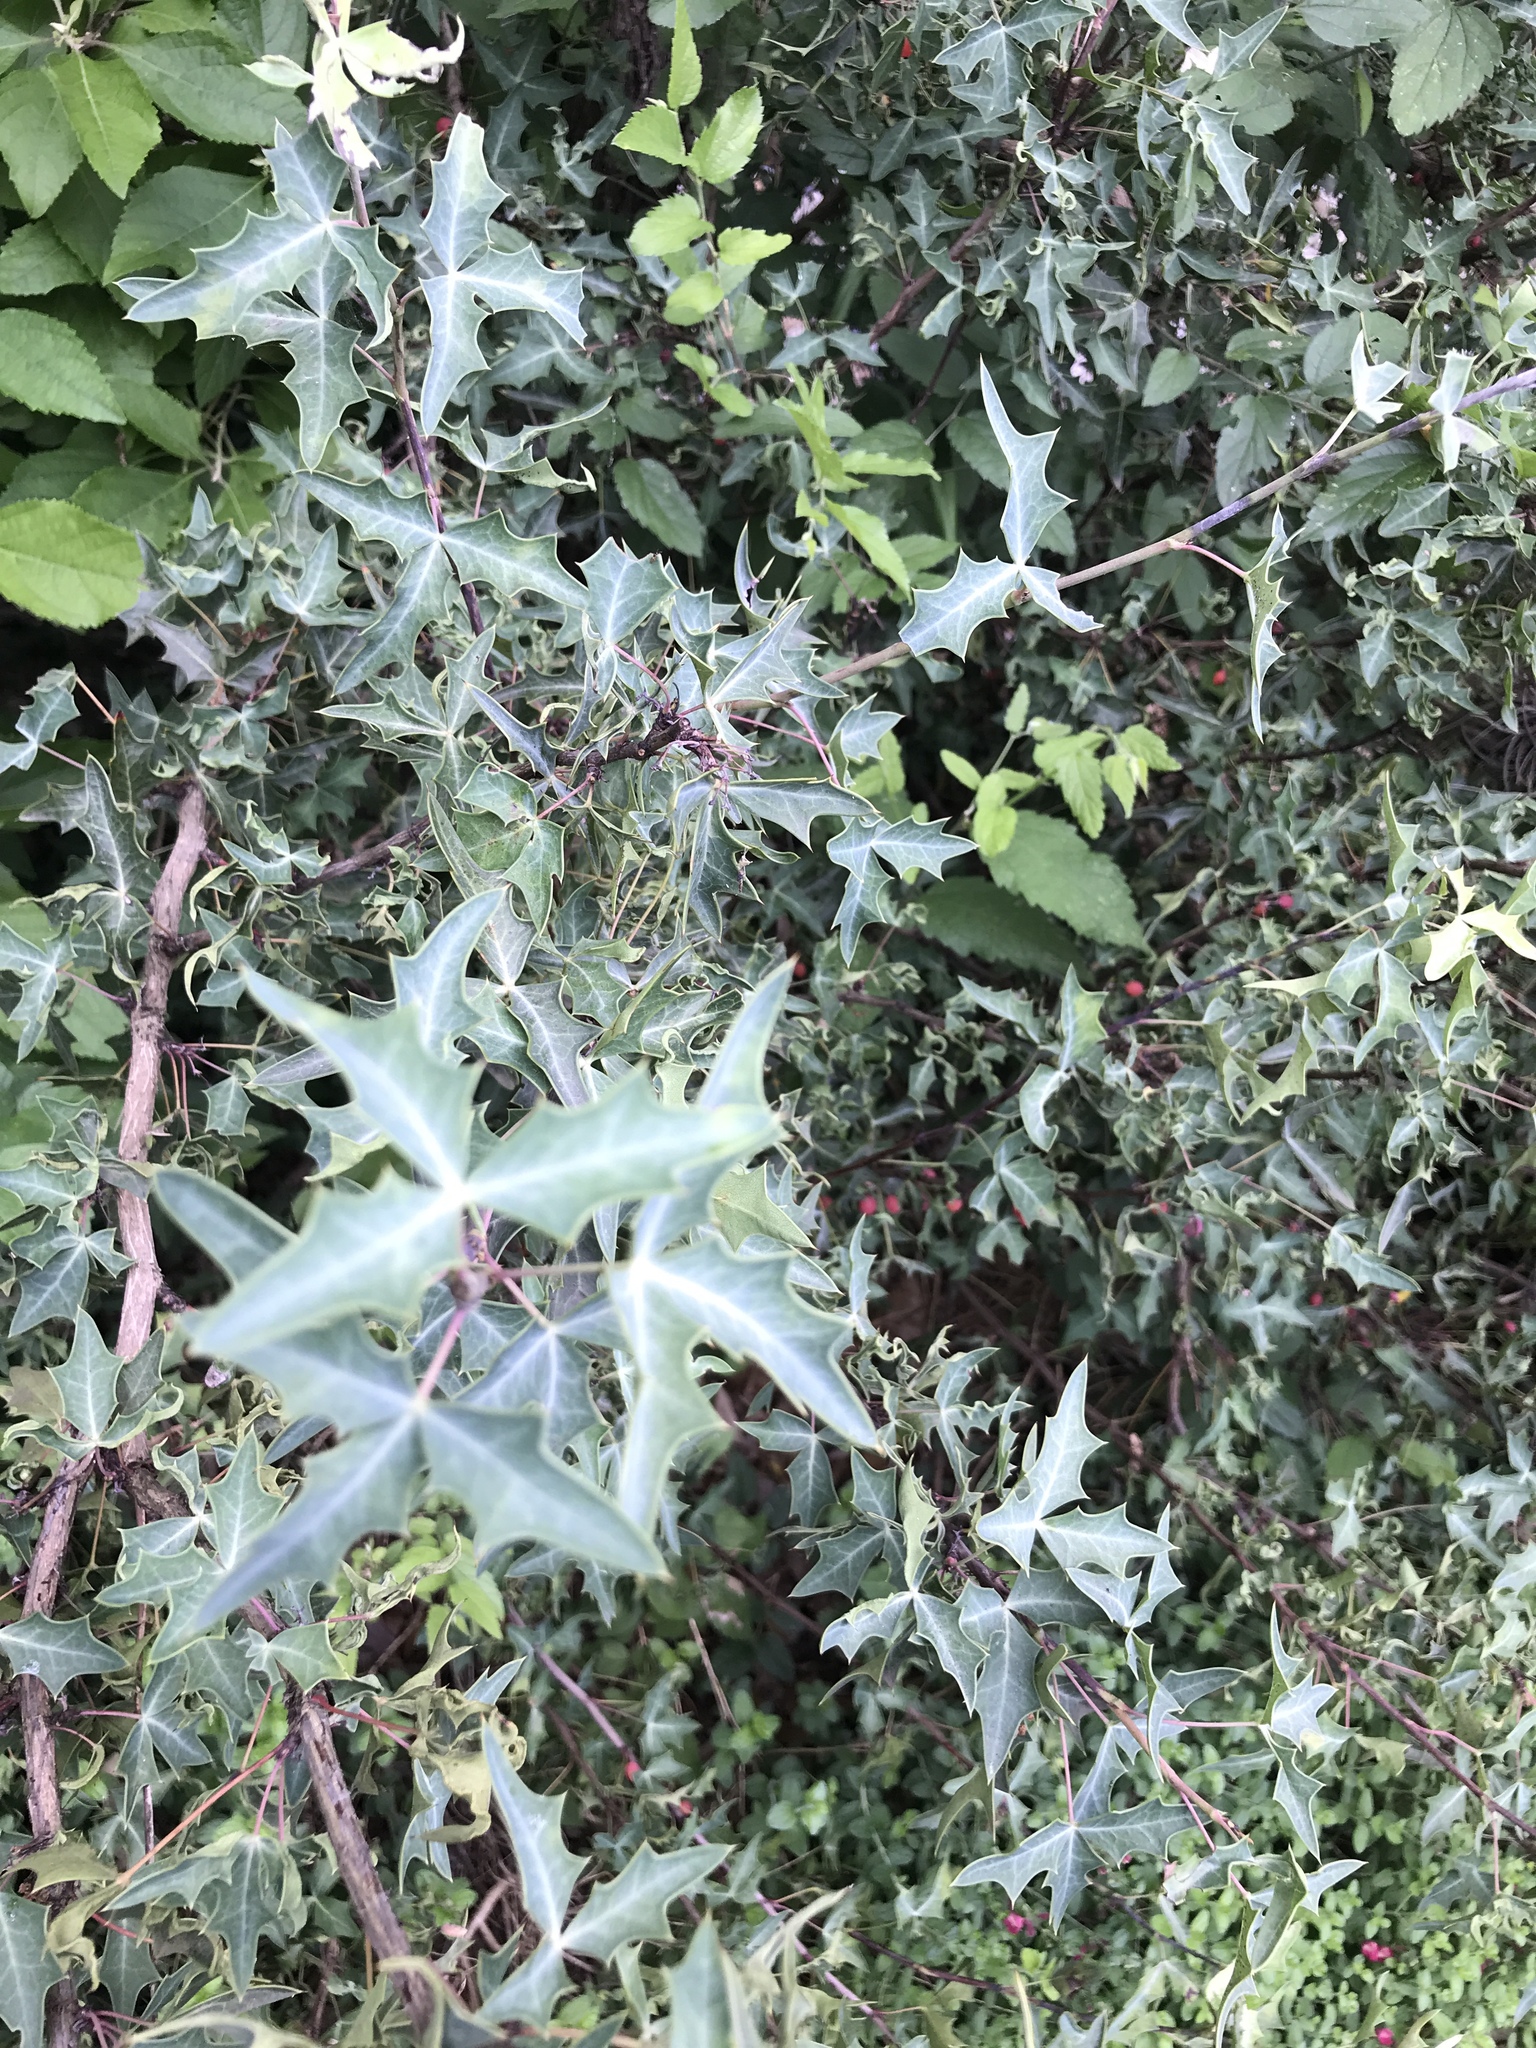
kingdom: Plantae
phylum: Tracheophyta
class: Magnoliopsida
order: Ranunculales
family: Berberidaceae
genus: Alloberberis
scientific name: Alloberberis trifoliolata
